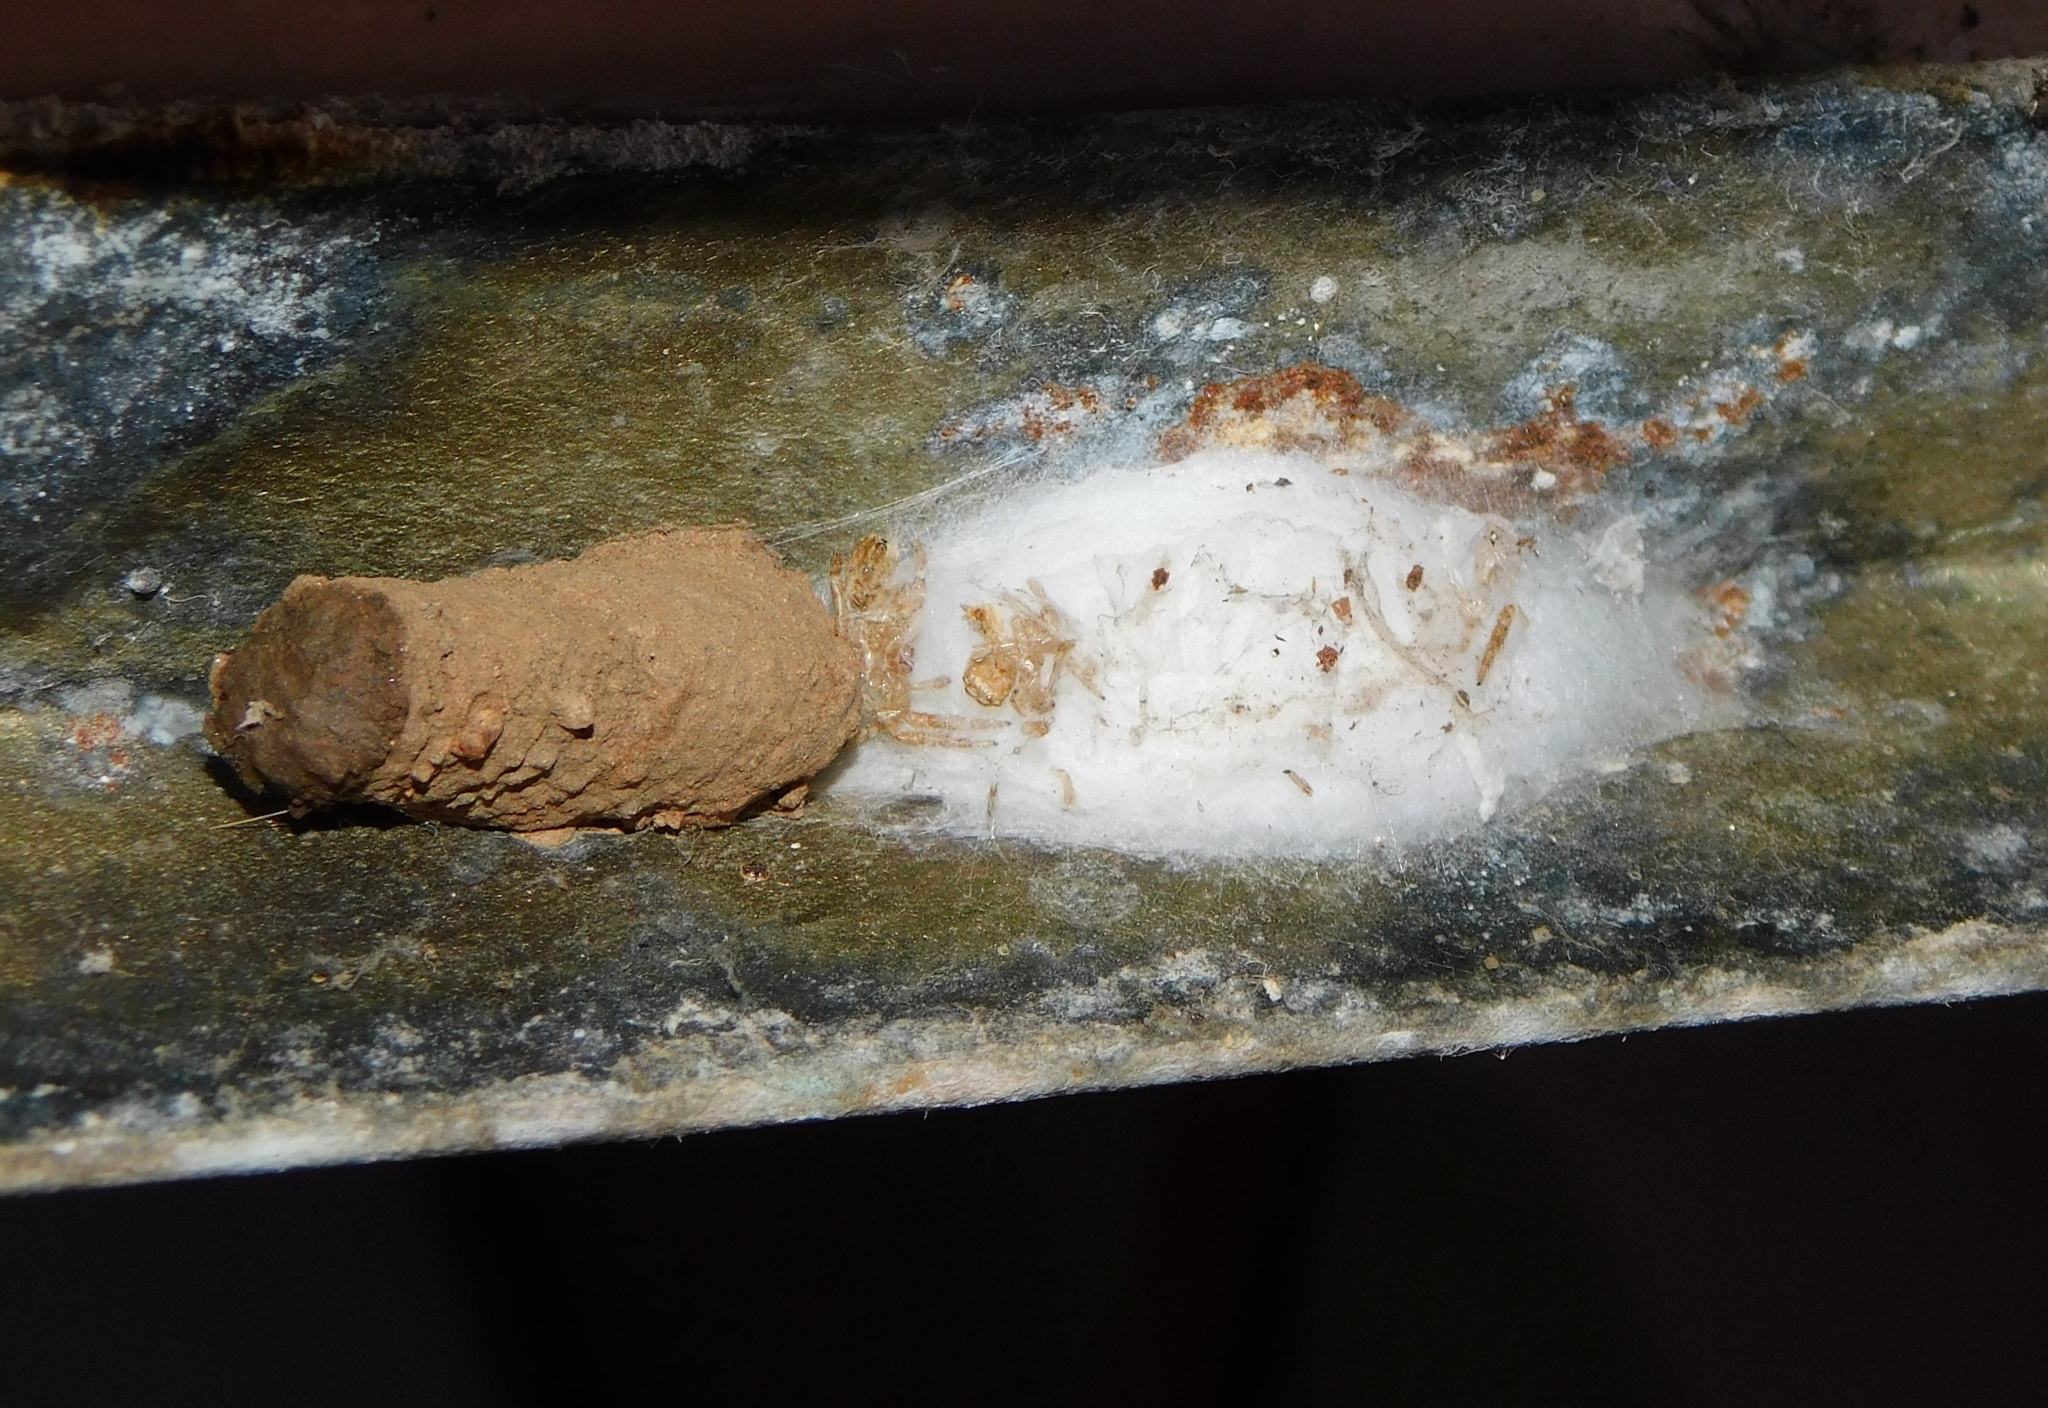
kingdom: Animalia
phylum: Arthropoda
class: Insecta
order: Hymenoptera
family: Sphecidae
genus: Sceliphron
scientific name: Sceliphron madraspatanum
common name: Mud dauber
